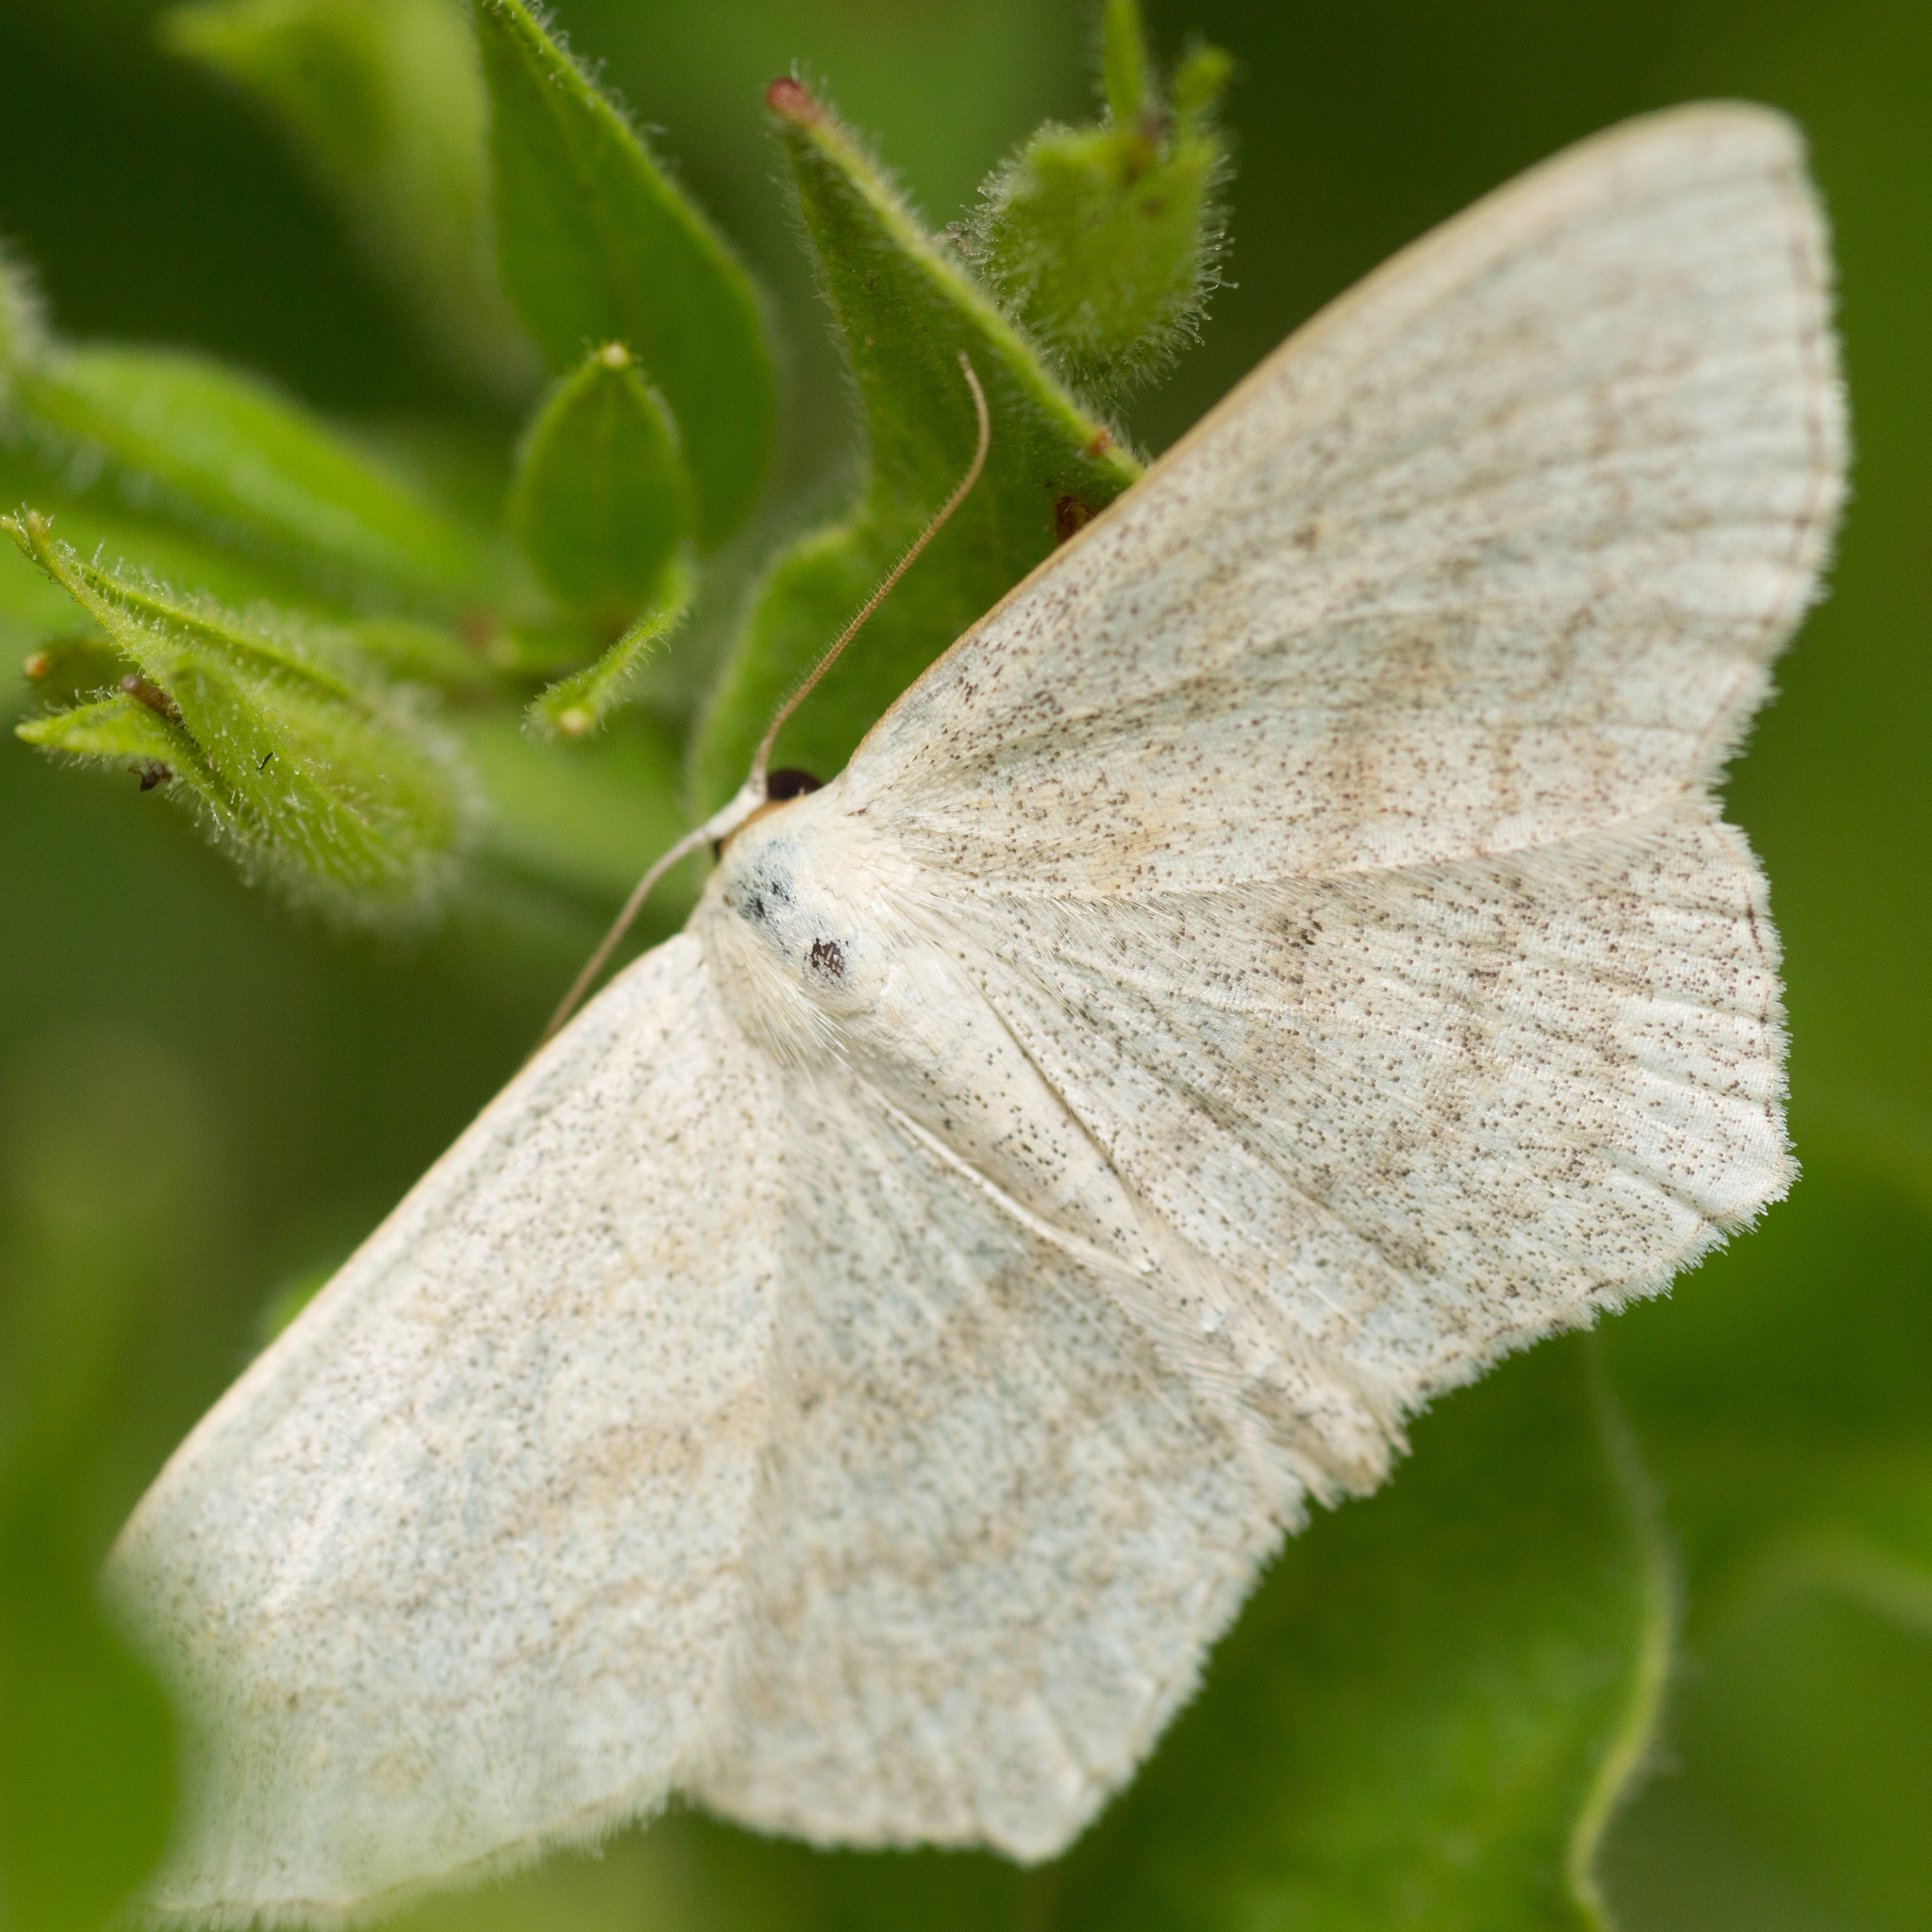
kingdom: Animalia
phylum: Arthropoda
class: Insecta
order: Lepidoptera
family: Geometridae
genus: Scopula
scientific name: Scopula nigropunctata
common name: Sub-angled wave
